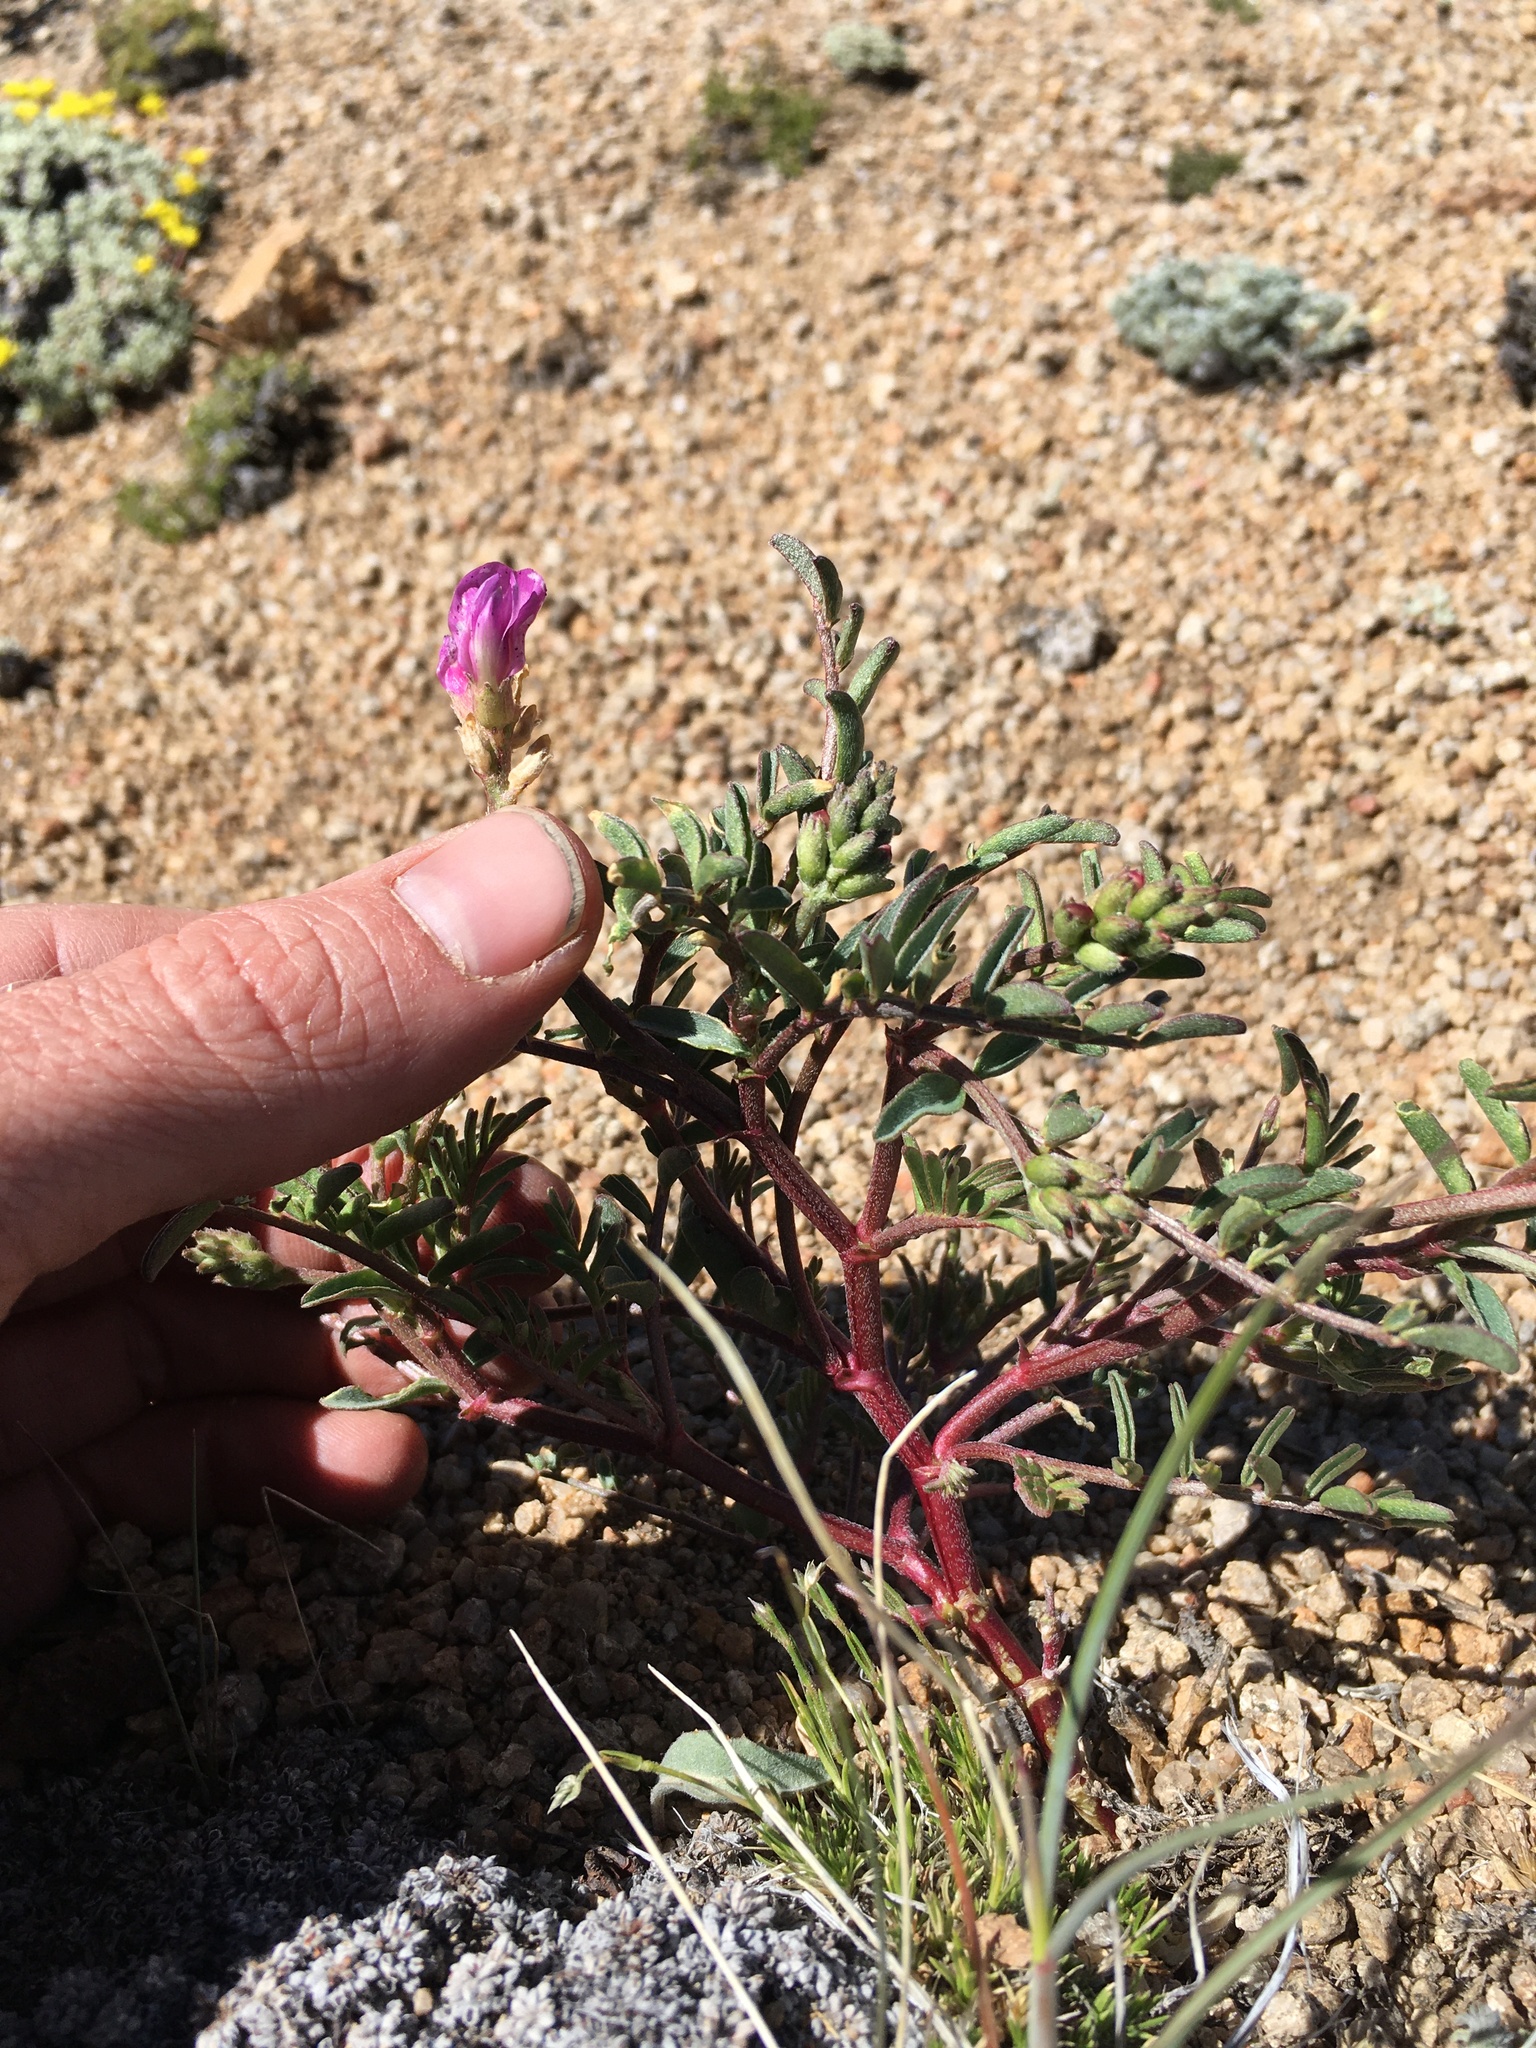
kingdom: Plantae
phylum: Tracheophyta
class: Magnoliopsida
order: Fabales
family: Fabaceae
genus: Astragalus
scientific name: Astragalus whitneyi
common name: Balloonpod milkvetch
